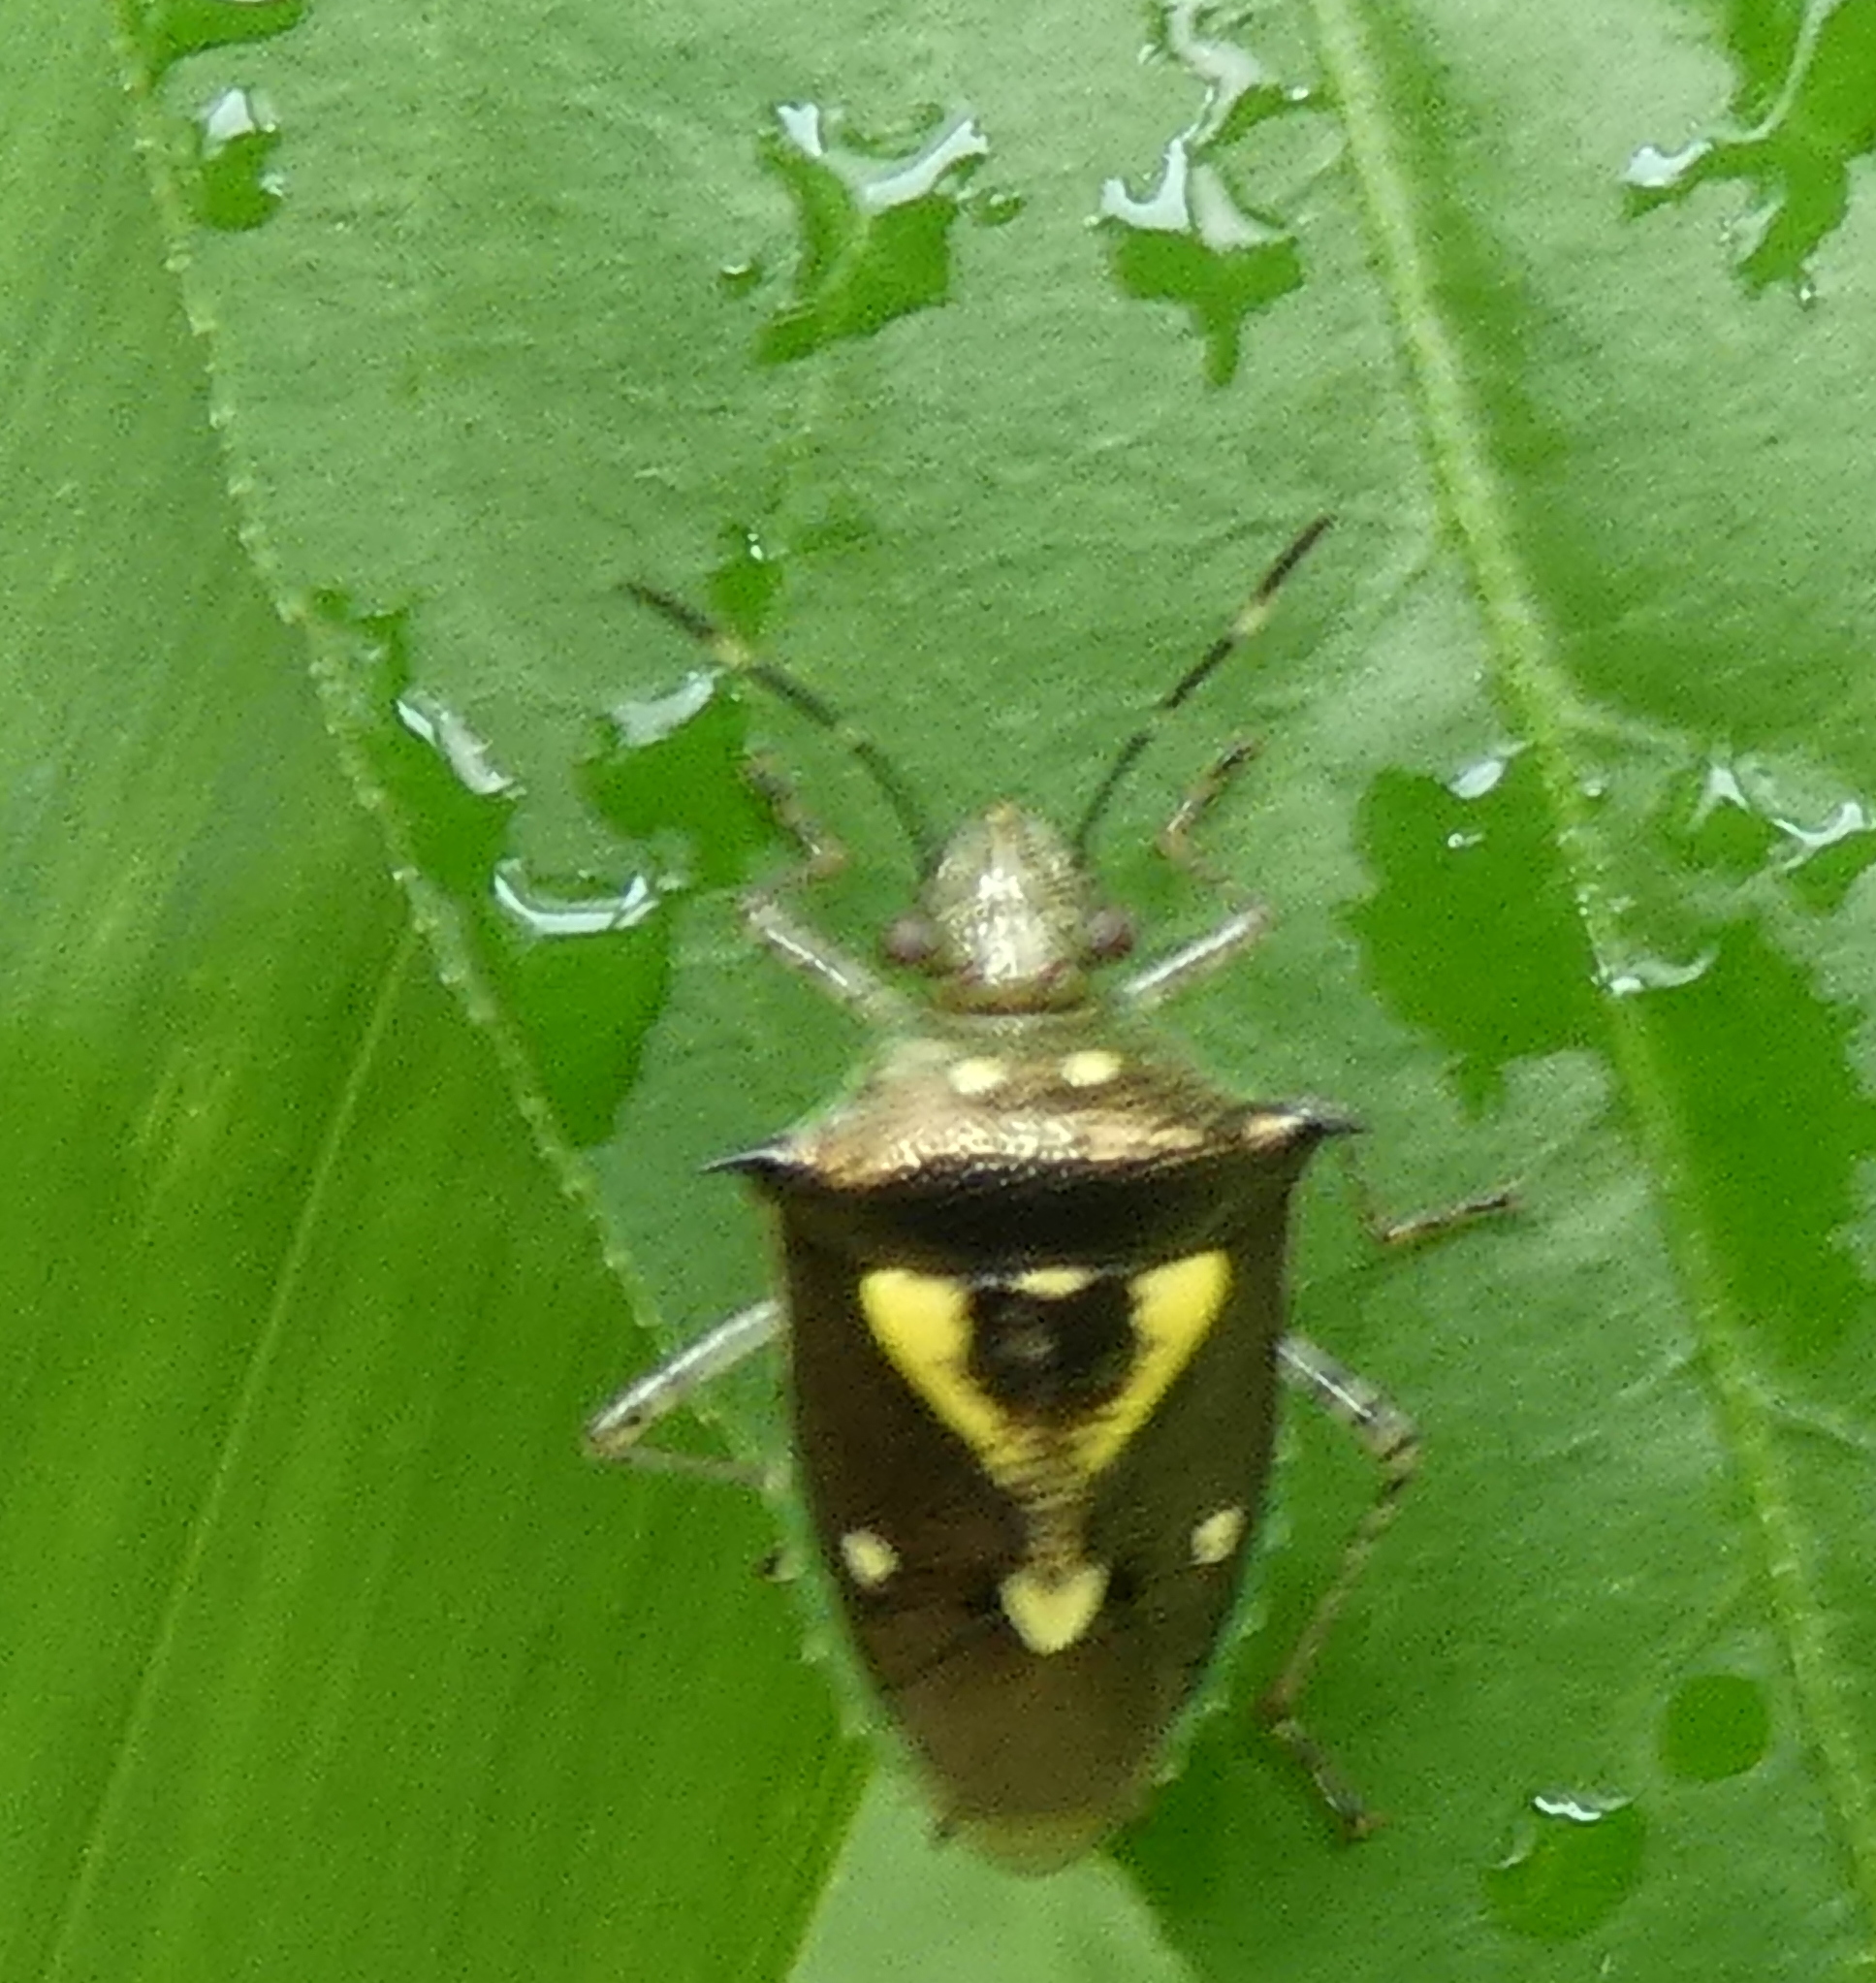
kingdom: Animalia
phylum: Arthropoda
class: Insecta
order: Hemiptera
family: Pentatomidae
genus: Mormidea
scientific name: Mormidea ypsilon
